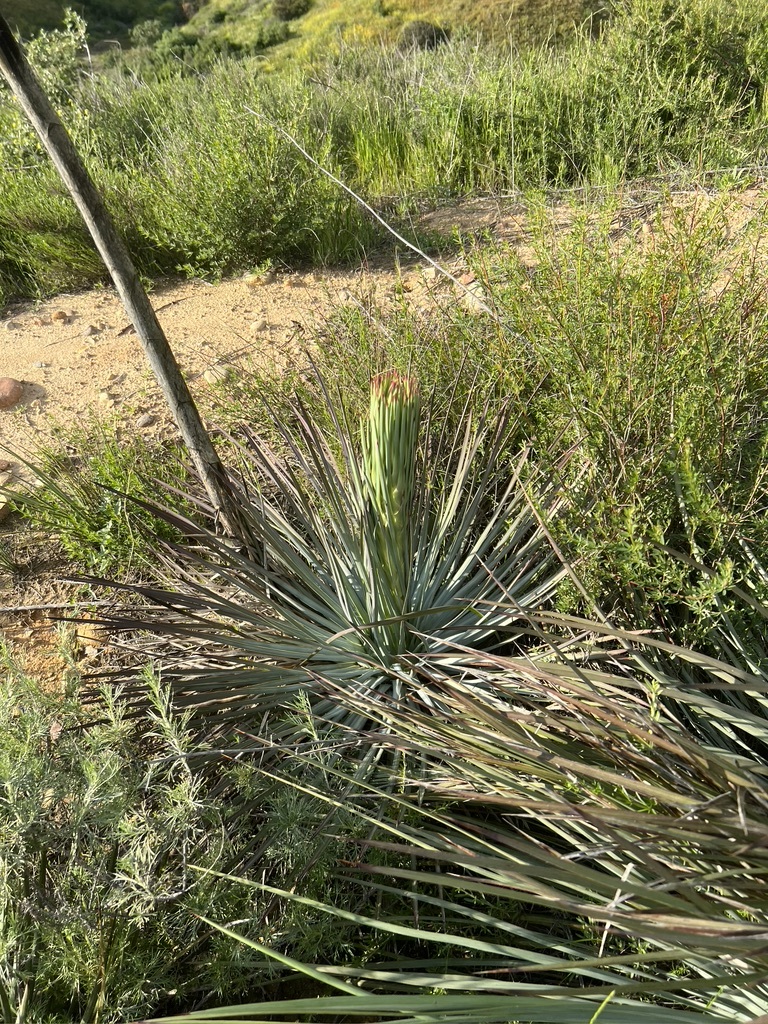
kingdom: Plantae
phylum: Tracheophyta
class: Liliopsida
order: Asparagales
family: Asparagaceae
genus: Hesperoyucca
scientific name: Hesperoyucca whipplei
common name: Our lord's-candle
